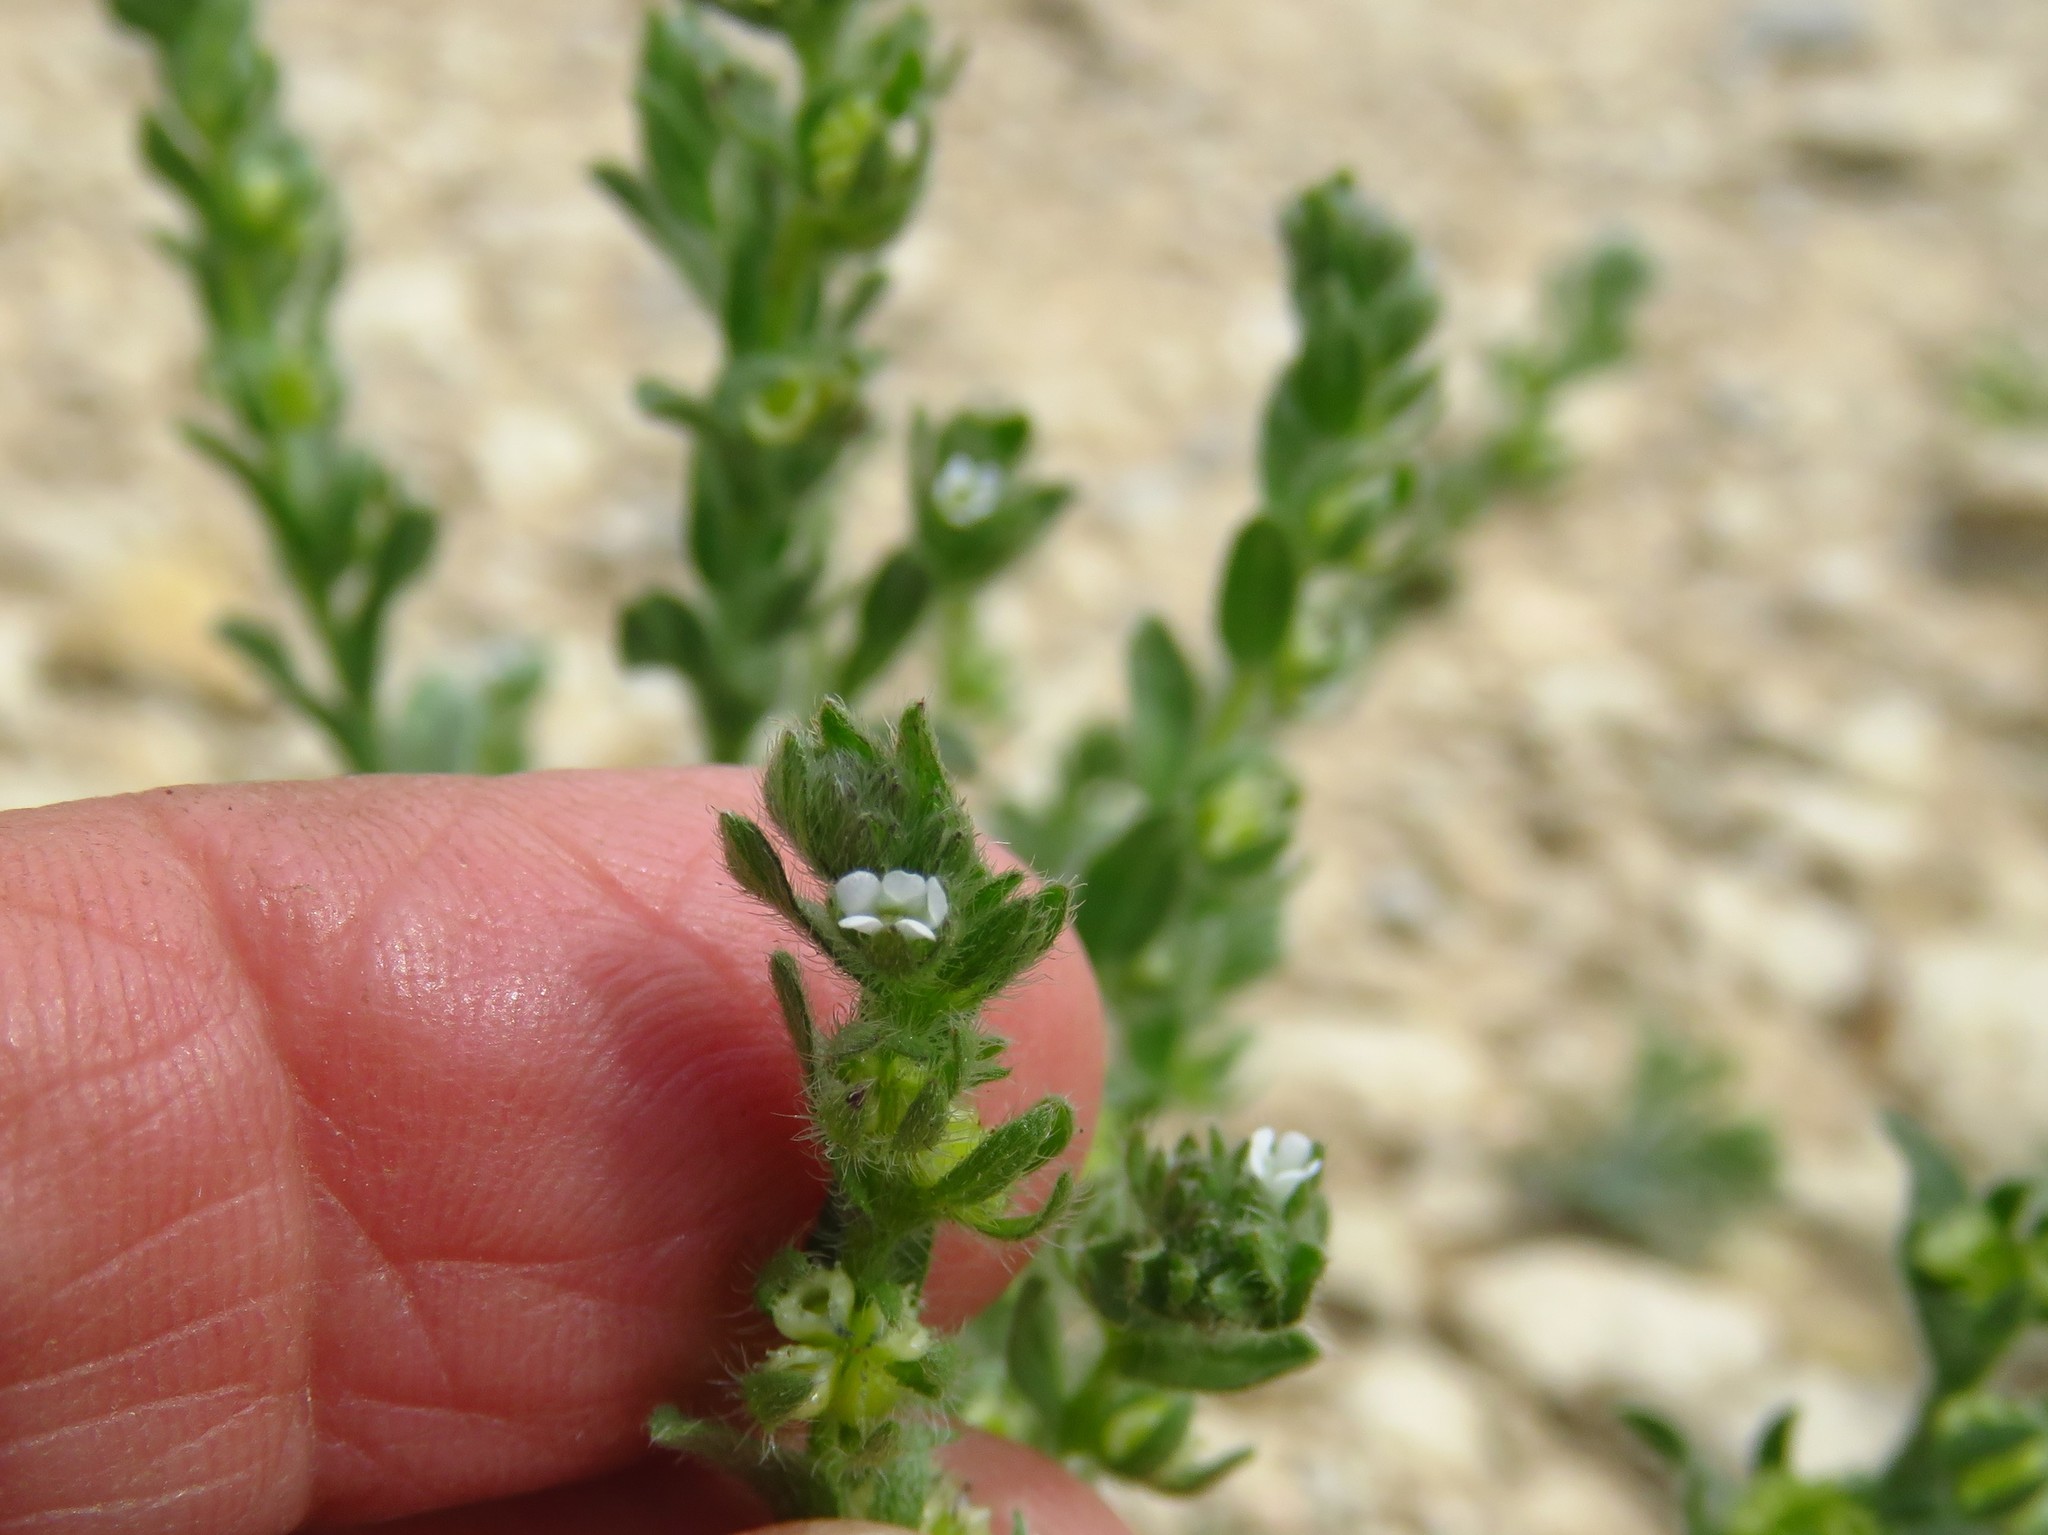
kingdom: Plantae
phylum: Tracheophyta
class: Magnoliopsida
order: Boraginales
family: Boraginaceae
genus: Lappula
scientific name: Lappula occidentalis
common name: Western stickseed
